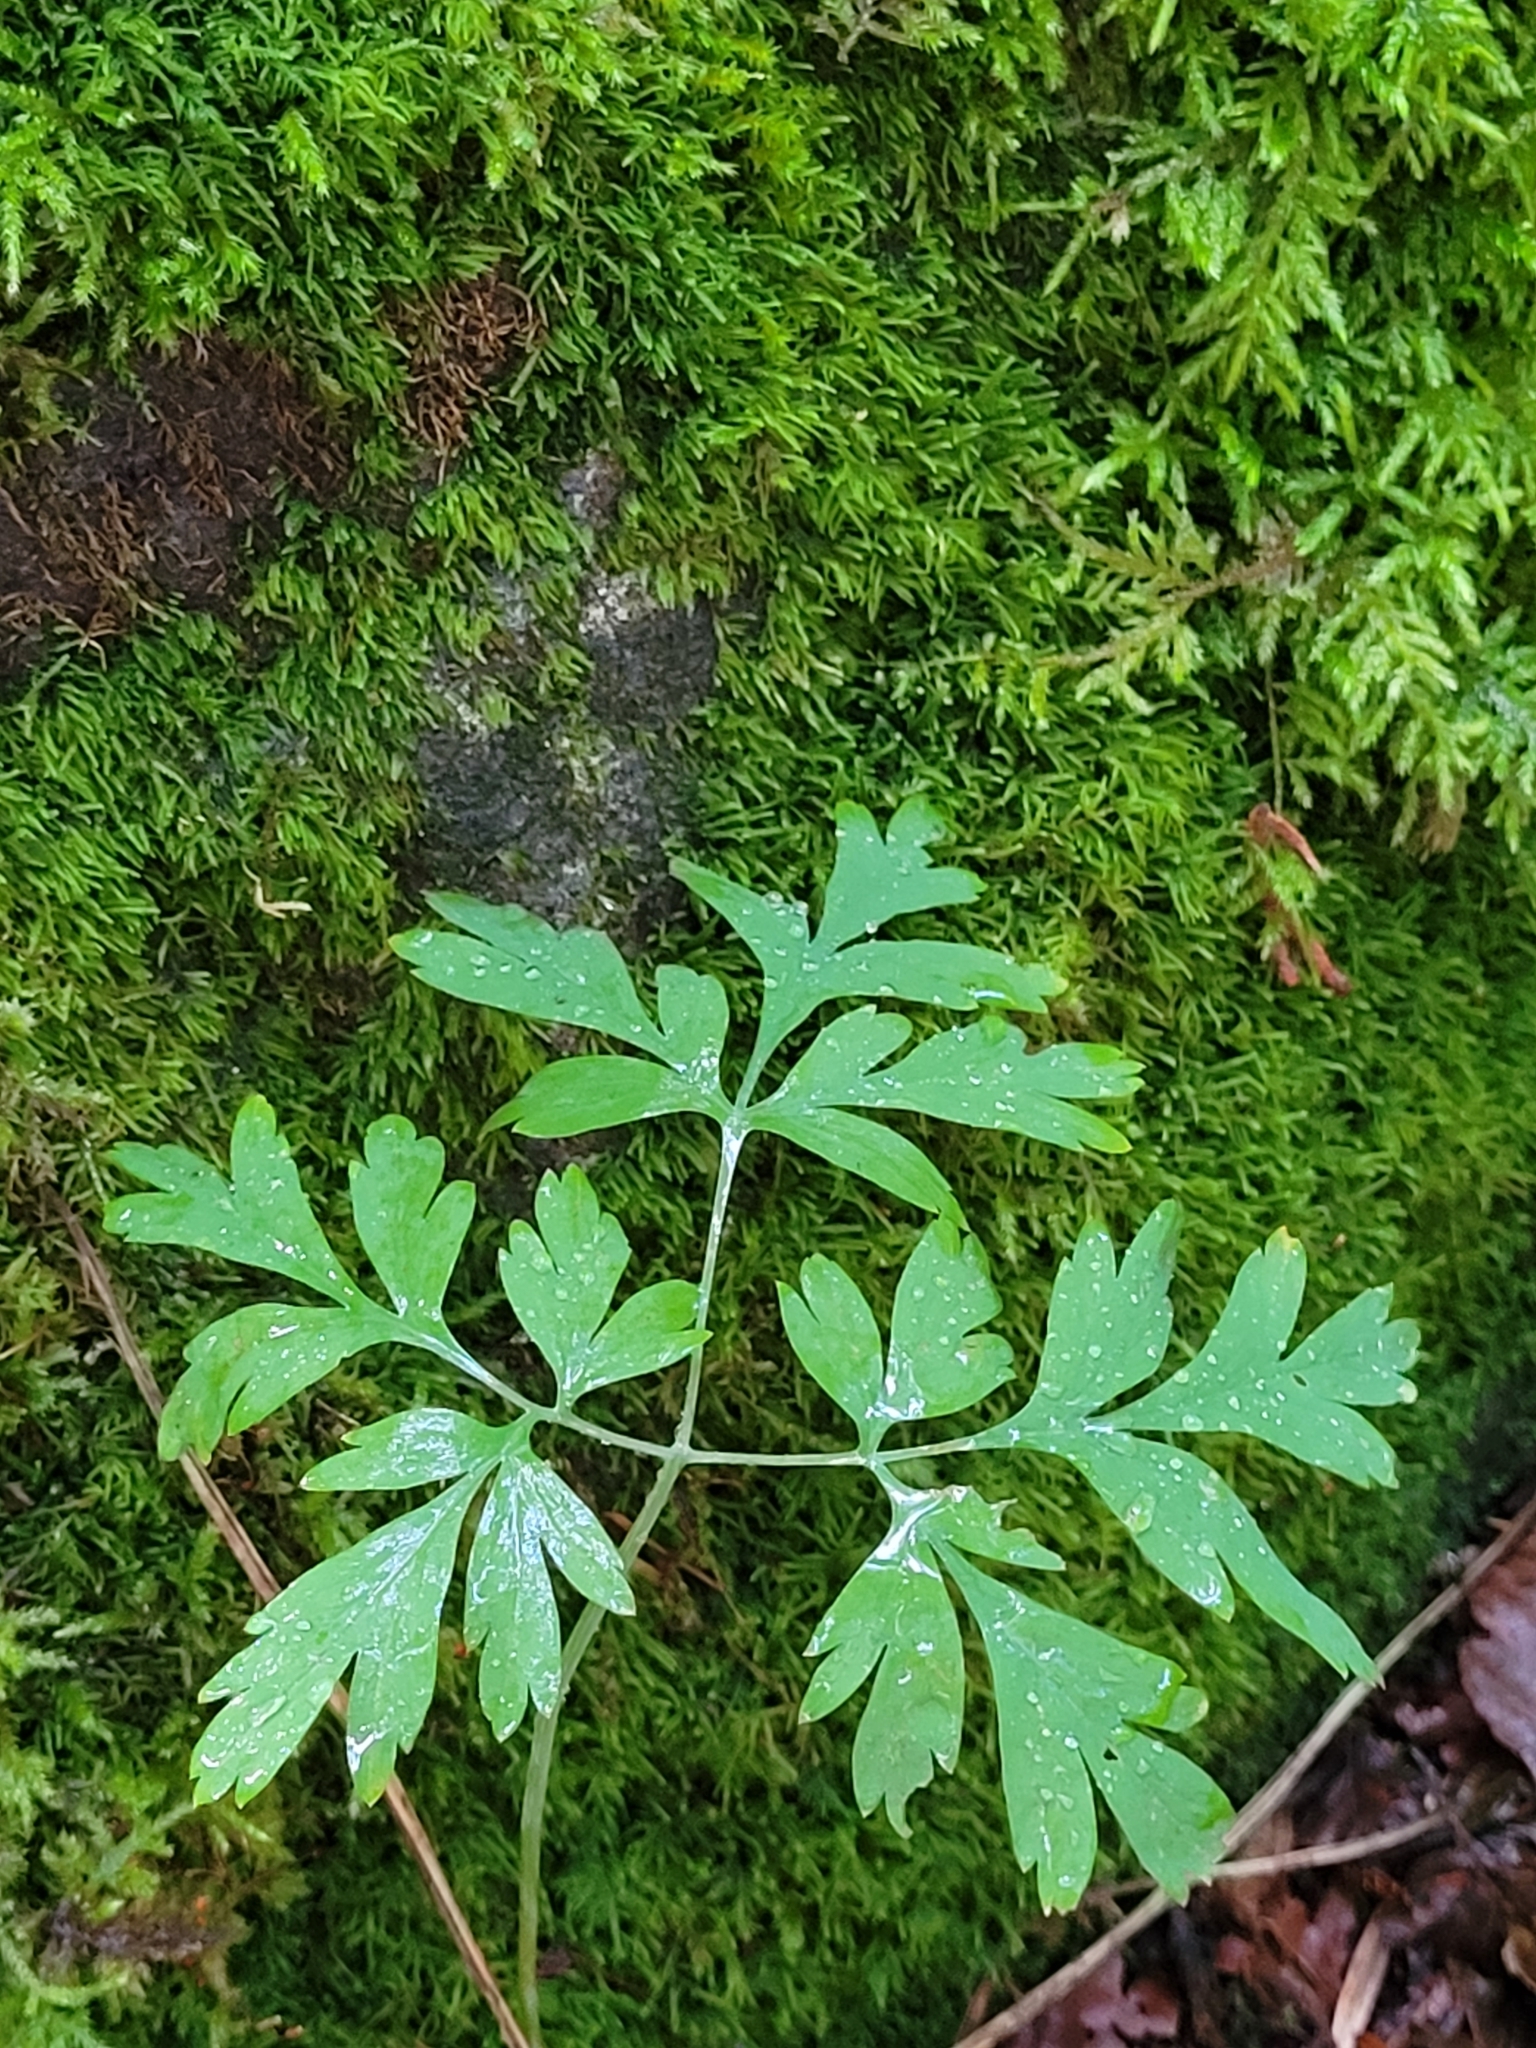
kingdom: Plantae
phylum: Tracheophyta
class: Magnoliopsida
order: Ranunculales
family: Papaveraceae
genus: Dicentra
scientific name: Dicentra formosa
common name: Bleeding-heart
